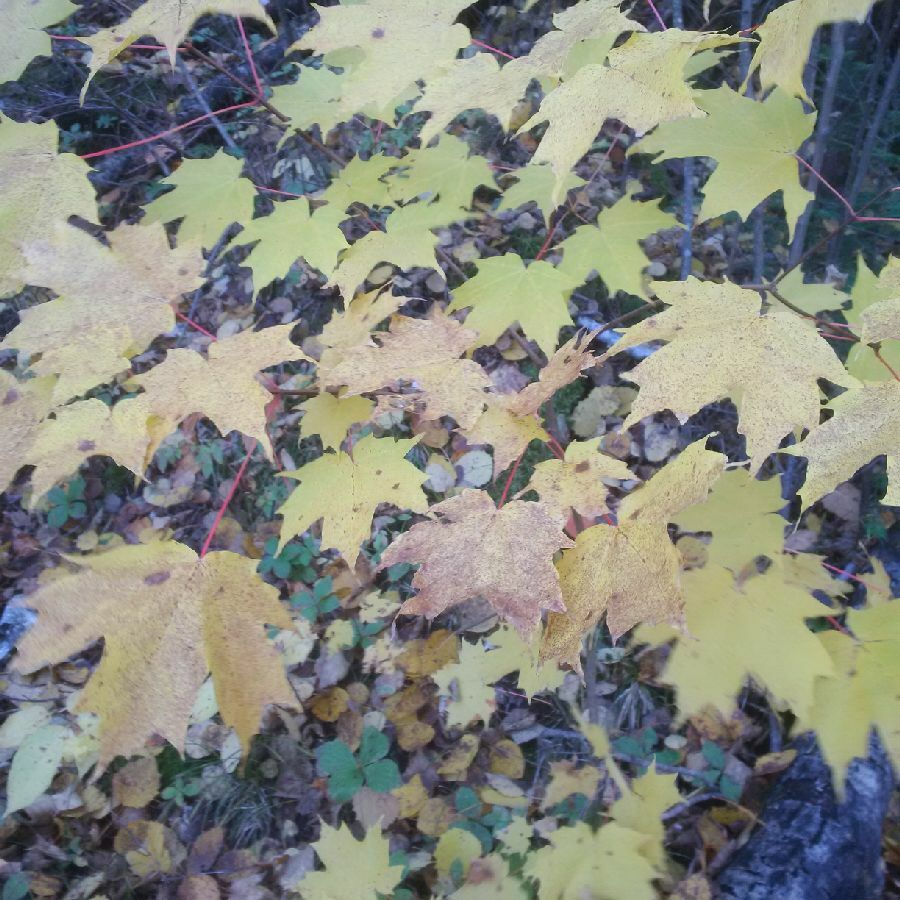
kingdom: Plantae
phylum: Tracheophyta
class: Magnoliopsida
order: Sapindales
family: Sapindaceae
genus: Acer
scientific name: Acer saccharum
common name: Sugar maple
